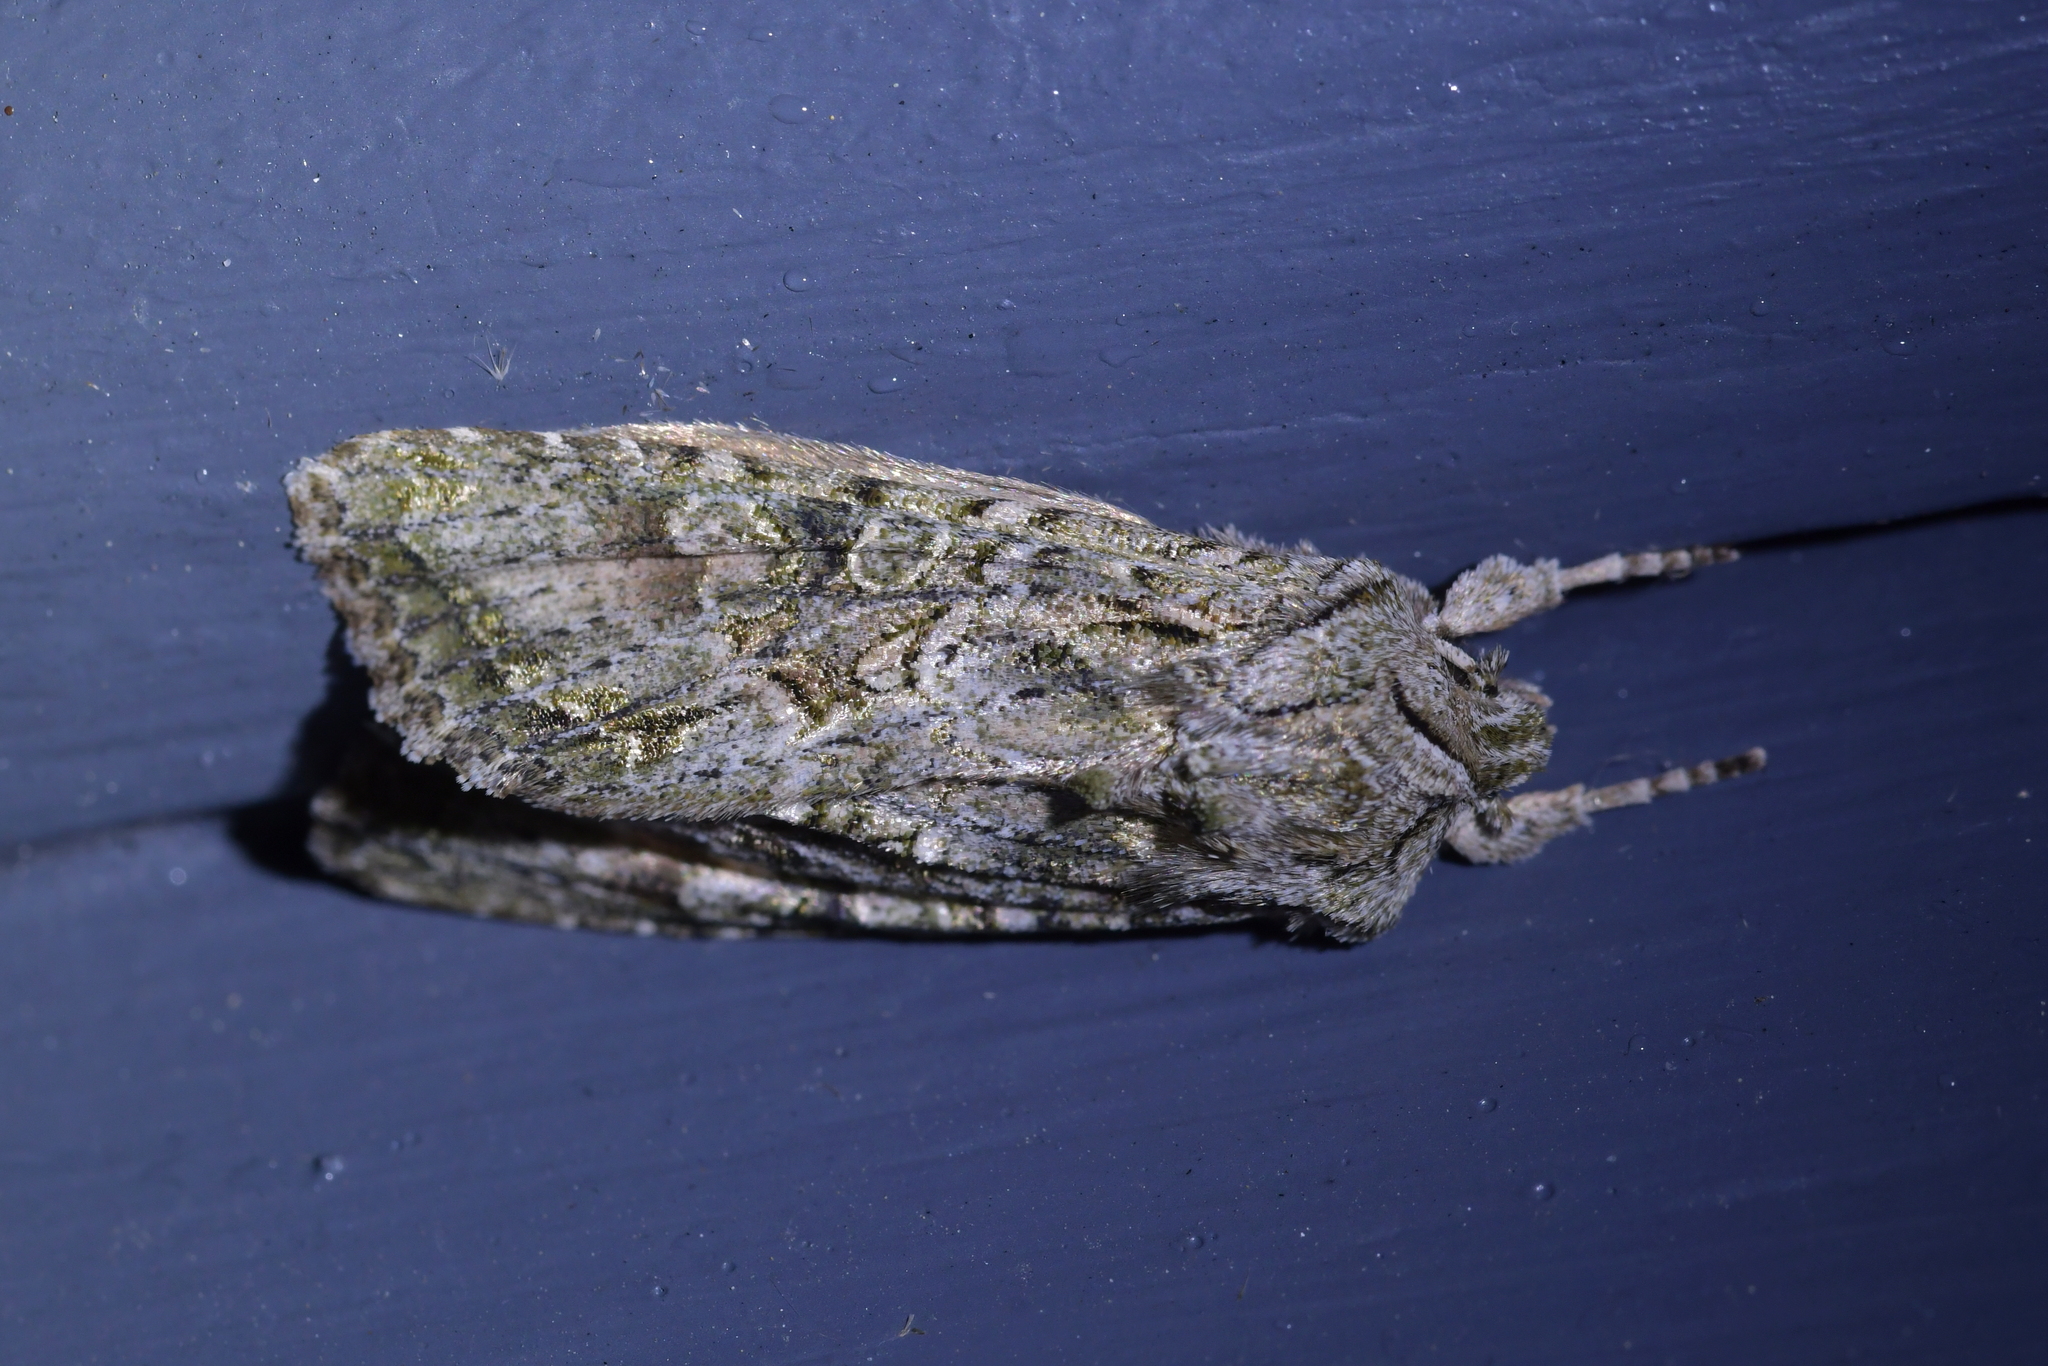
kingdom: Animalia
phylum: Arthropoda
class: Insecta
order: Lepidoptera
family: Noctuidae
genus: Ichneutica
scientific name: Ichneutica mutans
